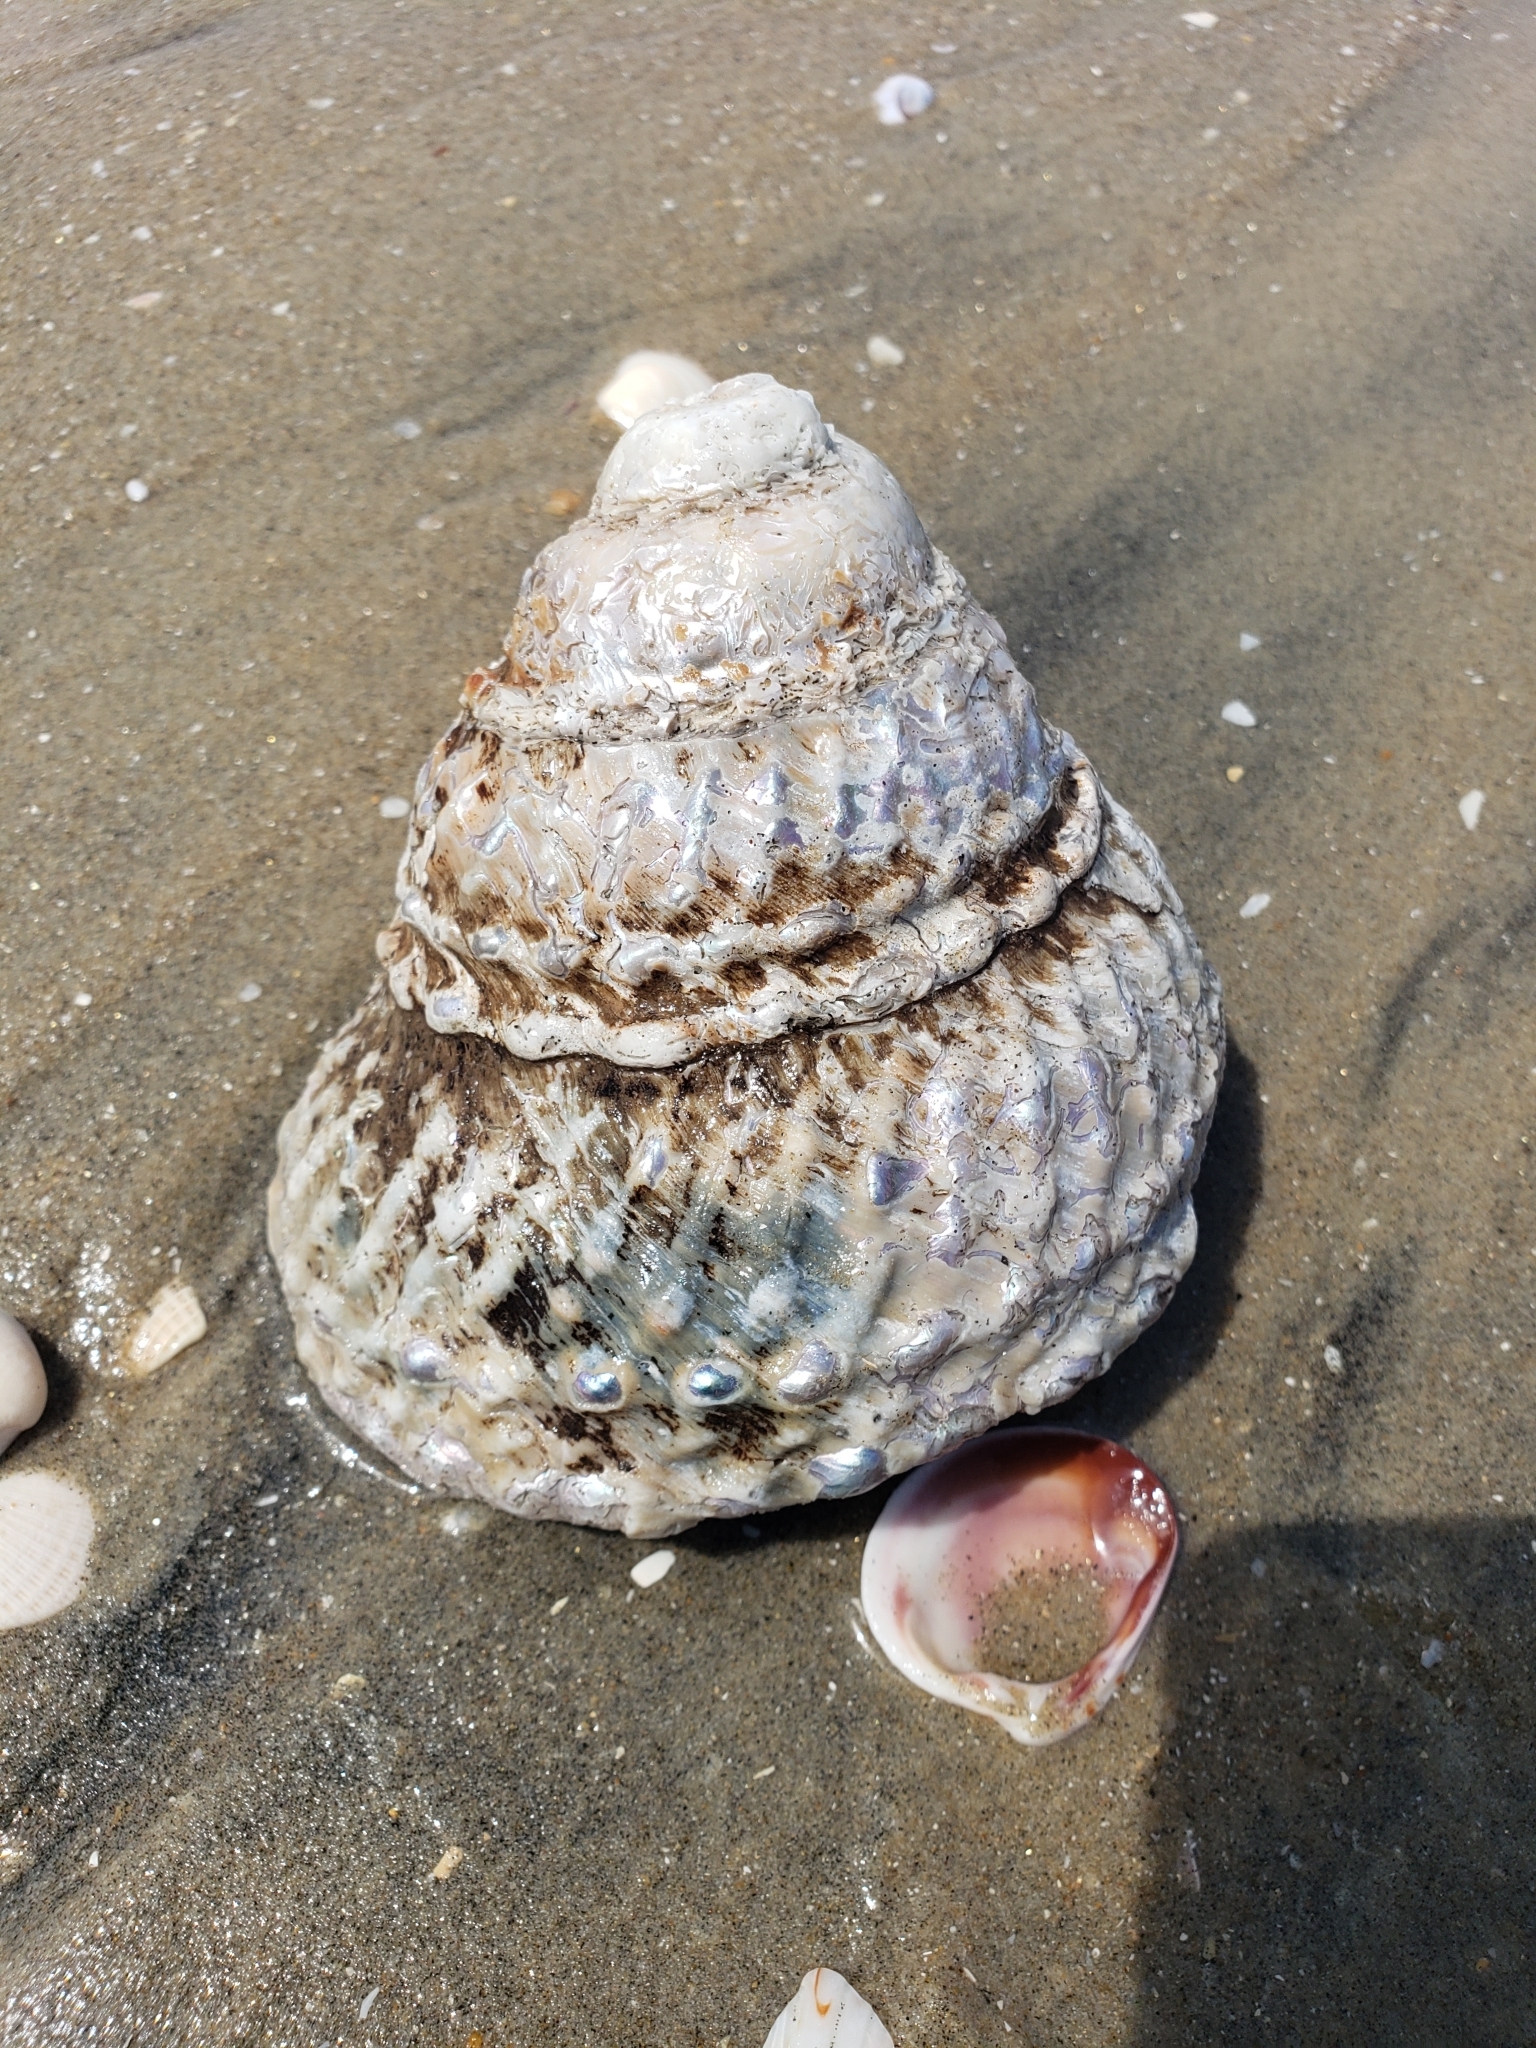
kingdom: Animalia
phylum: Mollusca
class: Gastropoda
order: Trochida
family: Turbinidae
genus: Megastraea
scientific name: Megastraea undosa
